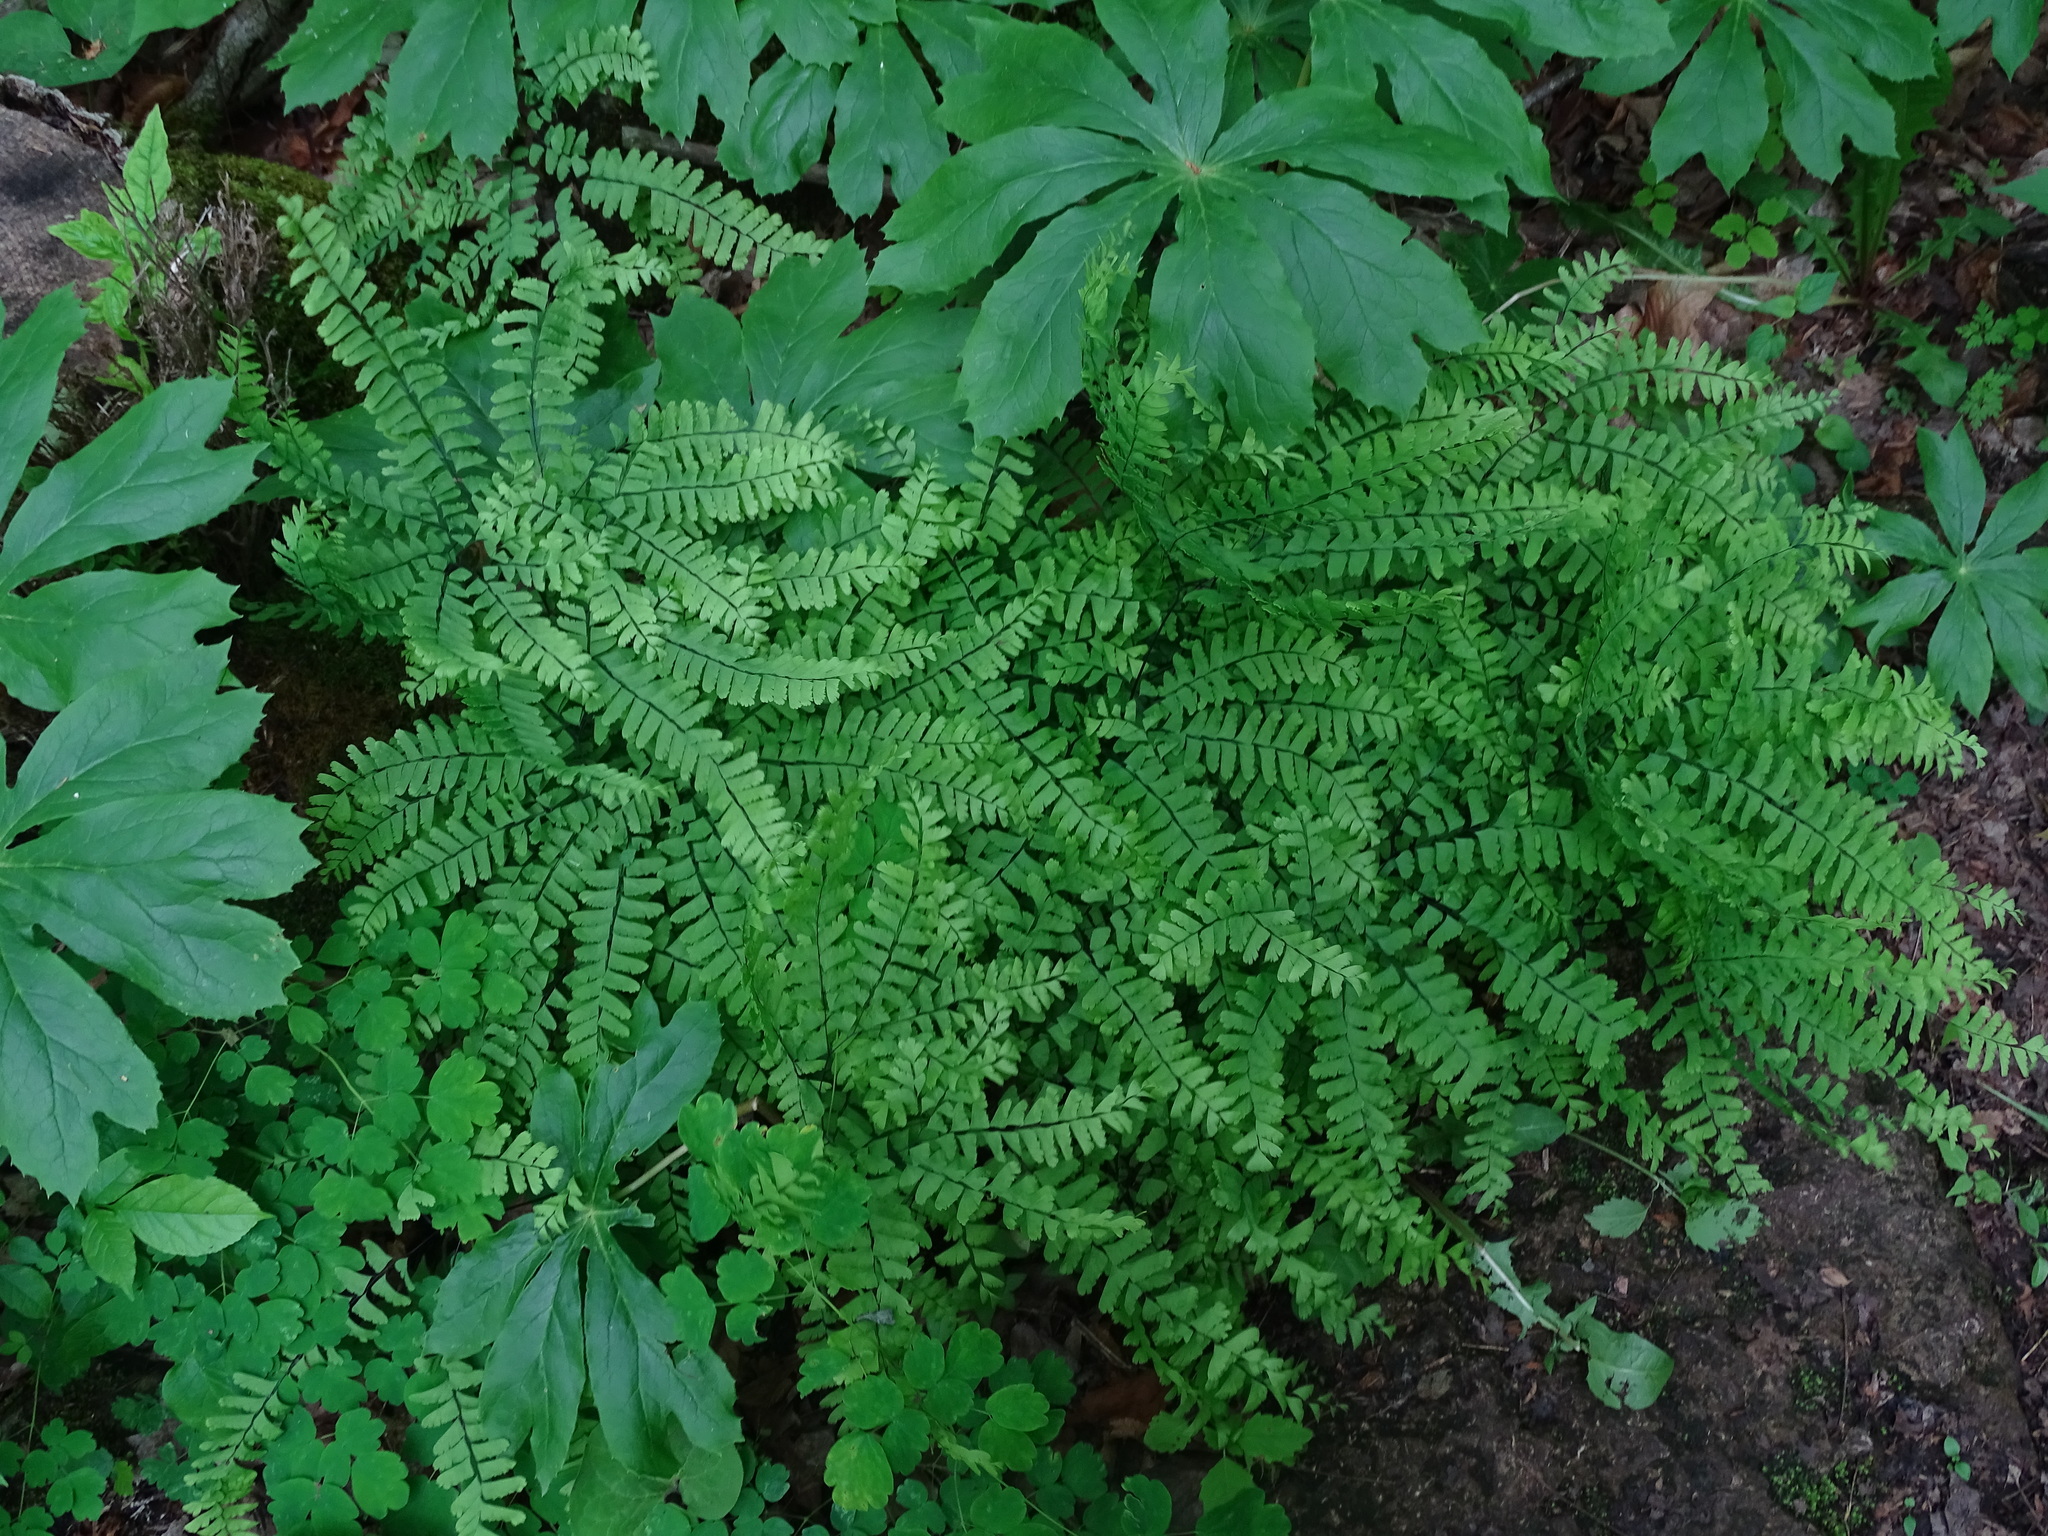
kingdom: Plantae
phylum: Tracheophyta
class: Polypodiopsida
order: Polypodiales
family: Pteridaceae
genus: Adiantum
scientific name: Adiantum pedatum
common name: Five-finger fern
